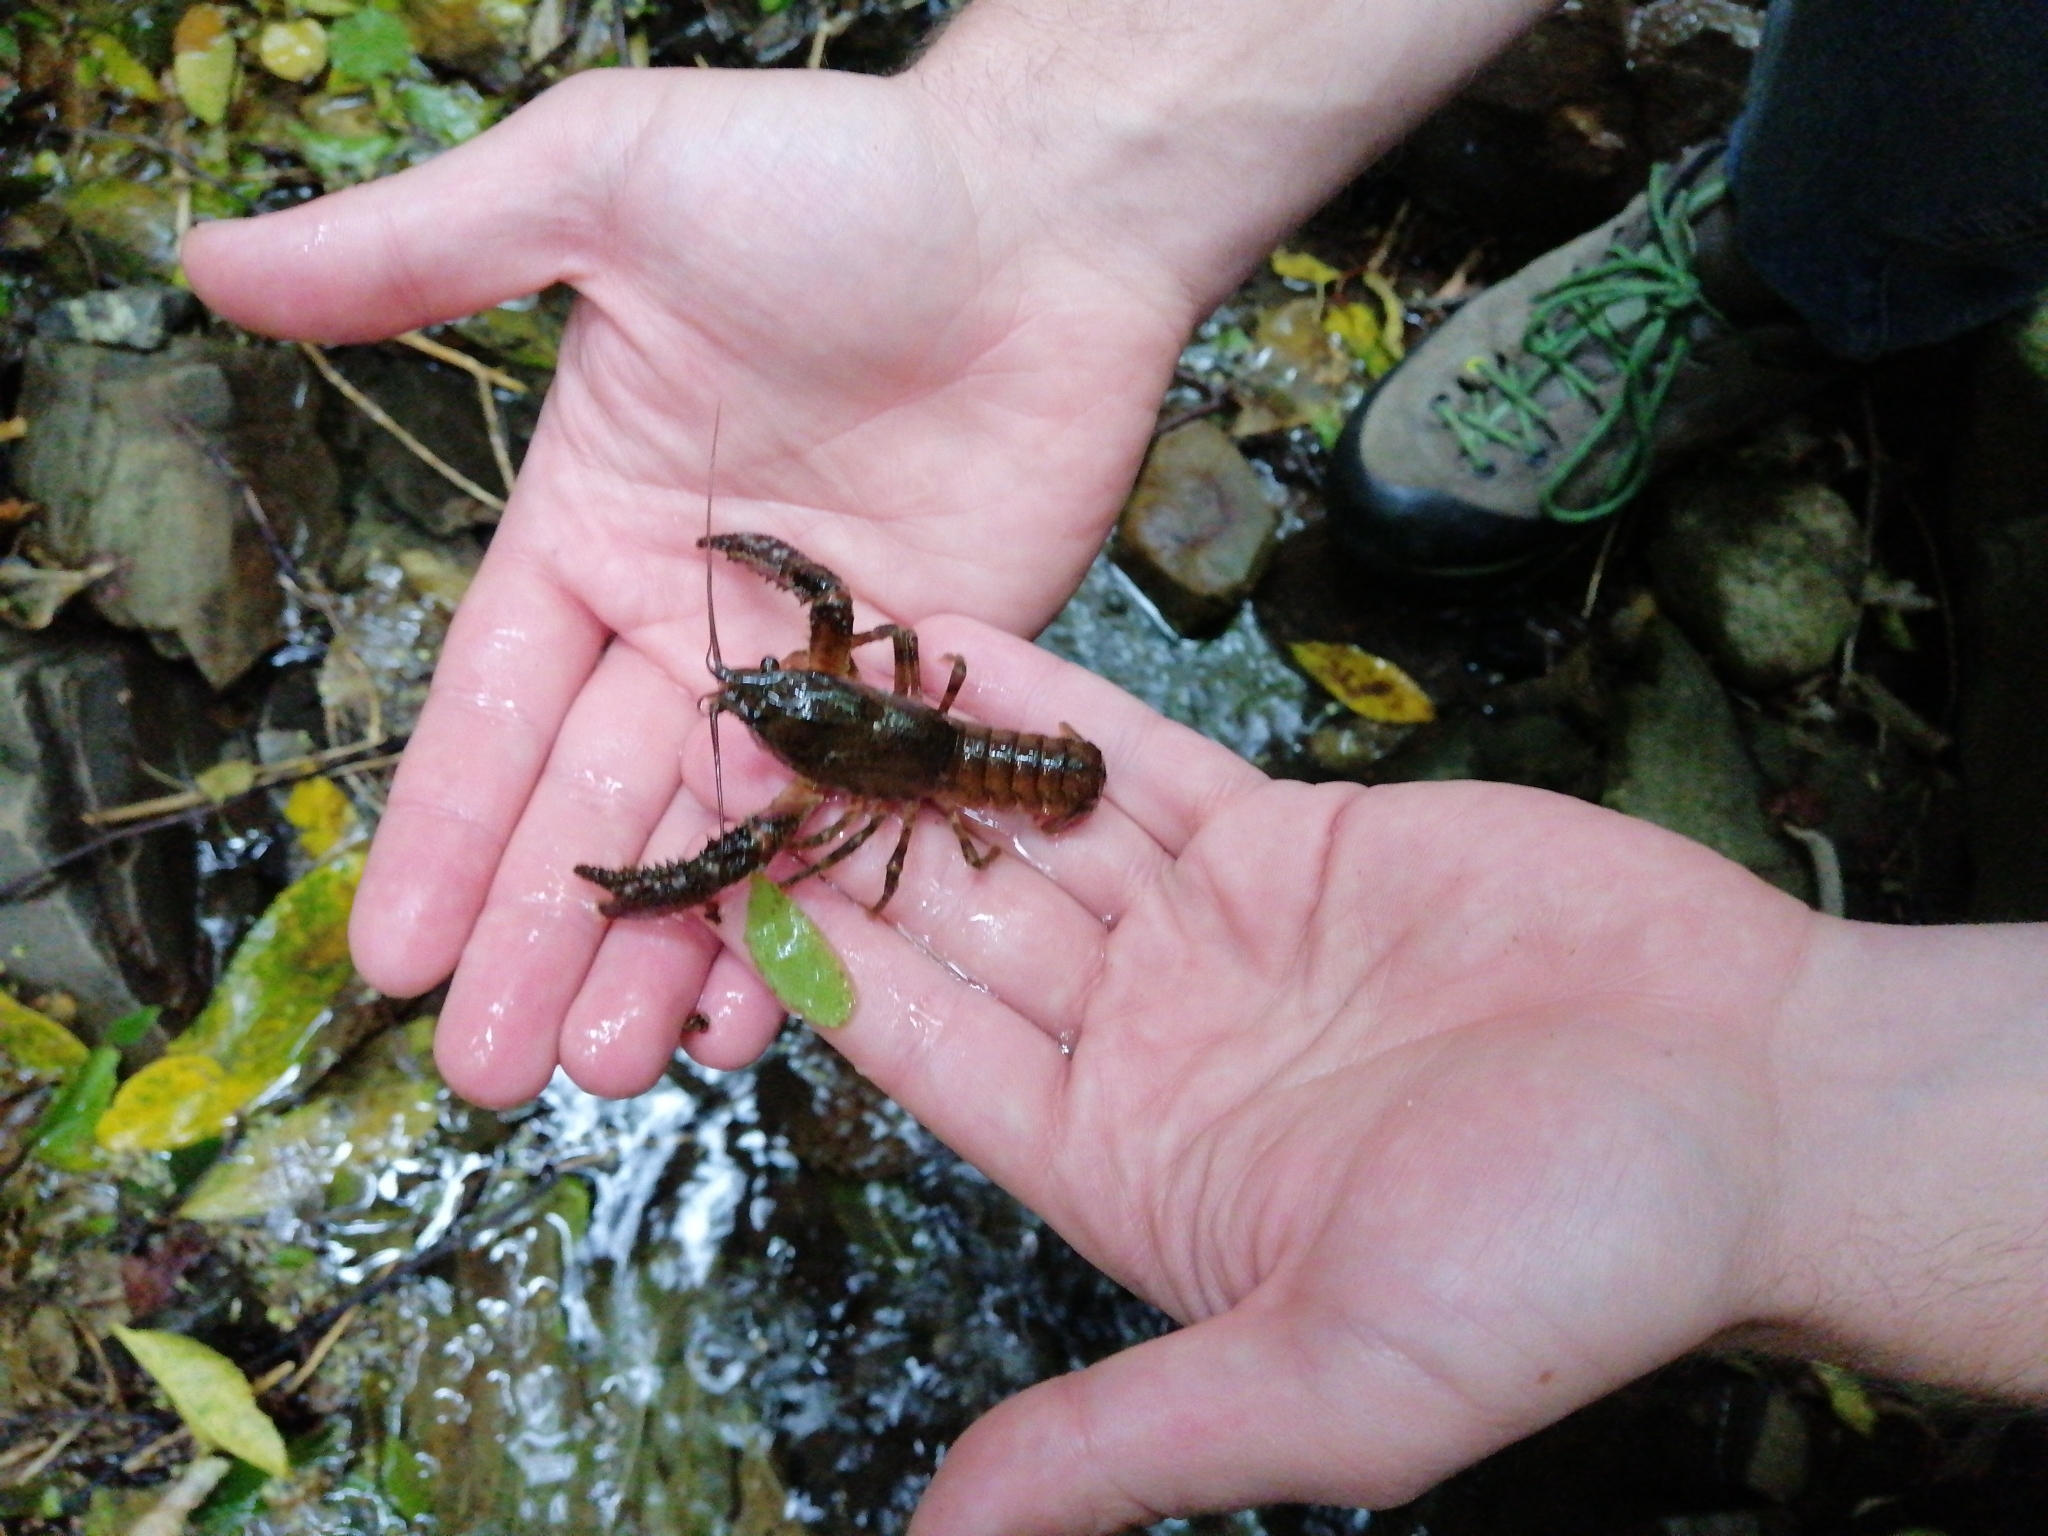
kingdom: Animalia
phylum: Arthropoda
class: Malacostraca
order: Decapoda
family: Parastacidae
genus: Paranephrops
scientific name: Paranephrops planifrons
